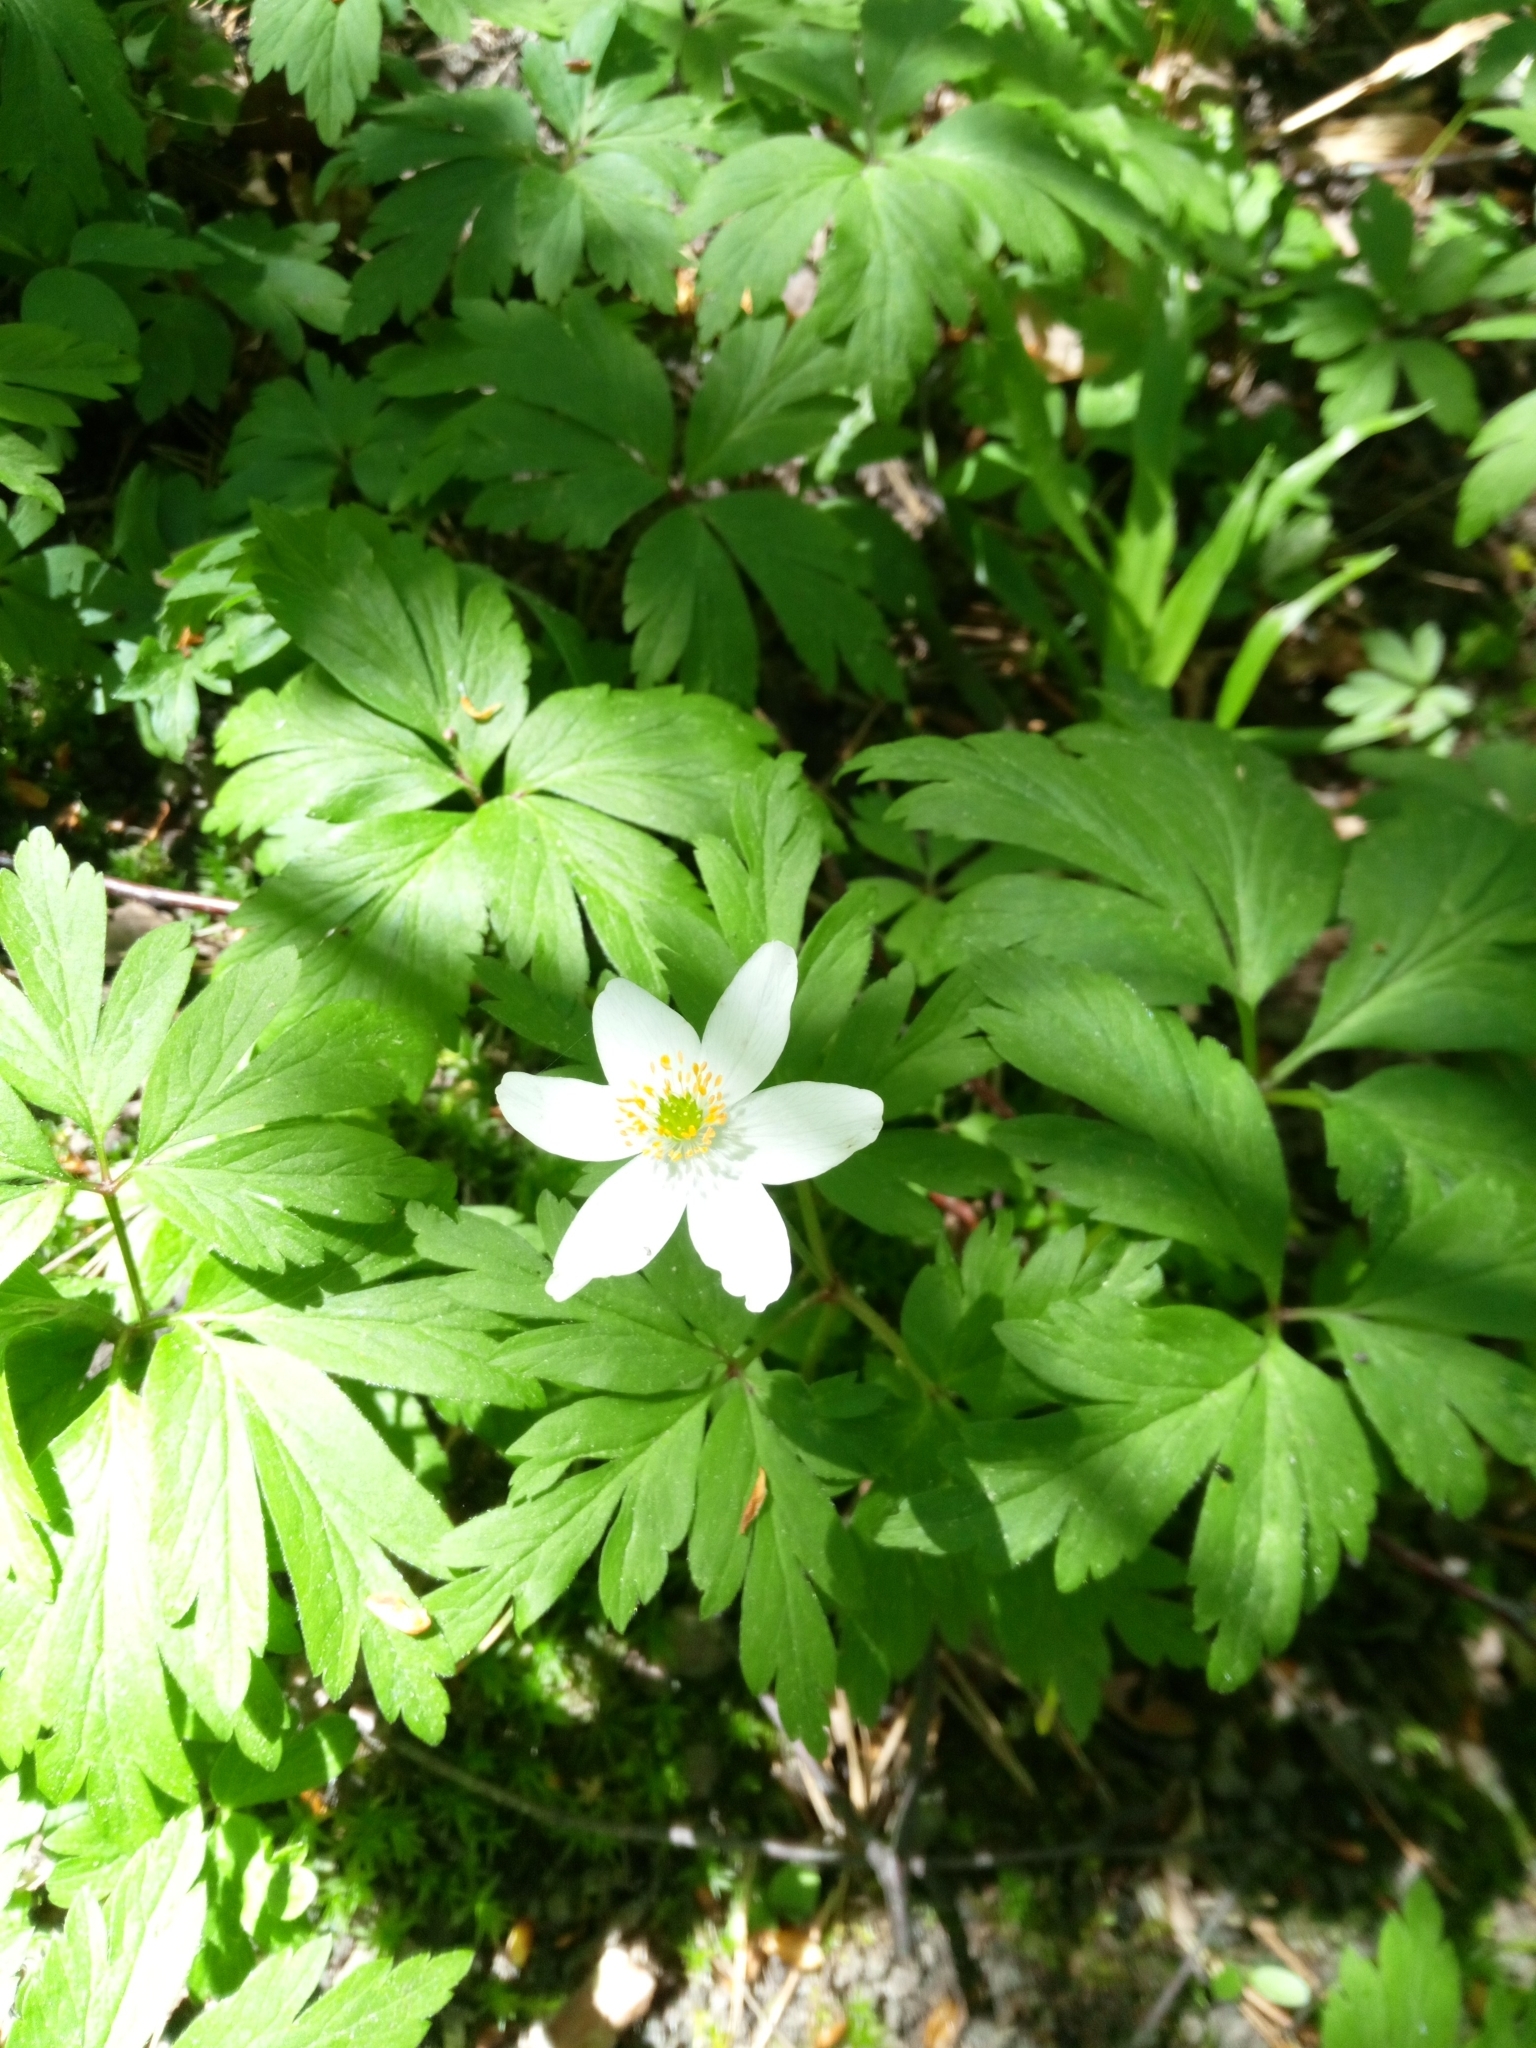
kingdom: Plantae
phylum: Tracheophyta
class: Magnoliopsida
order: Ranunculales
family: Ranunculaceae
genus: Anemone
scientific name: Anemone nemorosa
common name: Wood anemone
